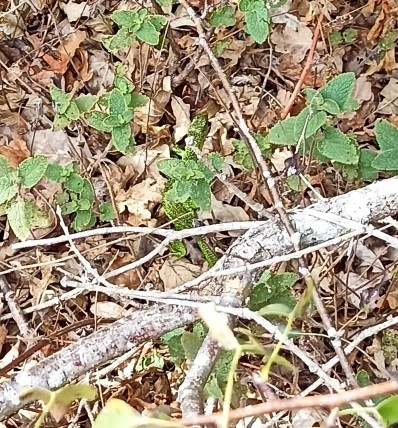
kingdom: Animalia
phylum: Chordata
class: Squamata
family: Lacertidae
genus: Lacerta
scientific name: Lacerta bilineata
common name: Western green lizard
